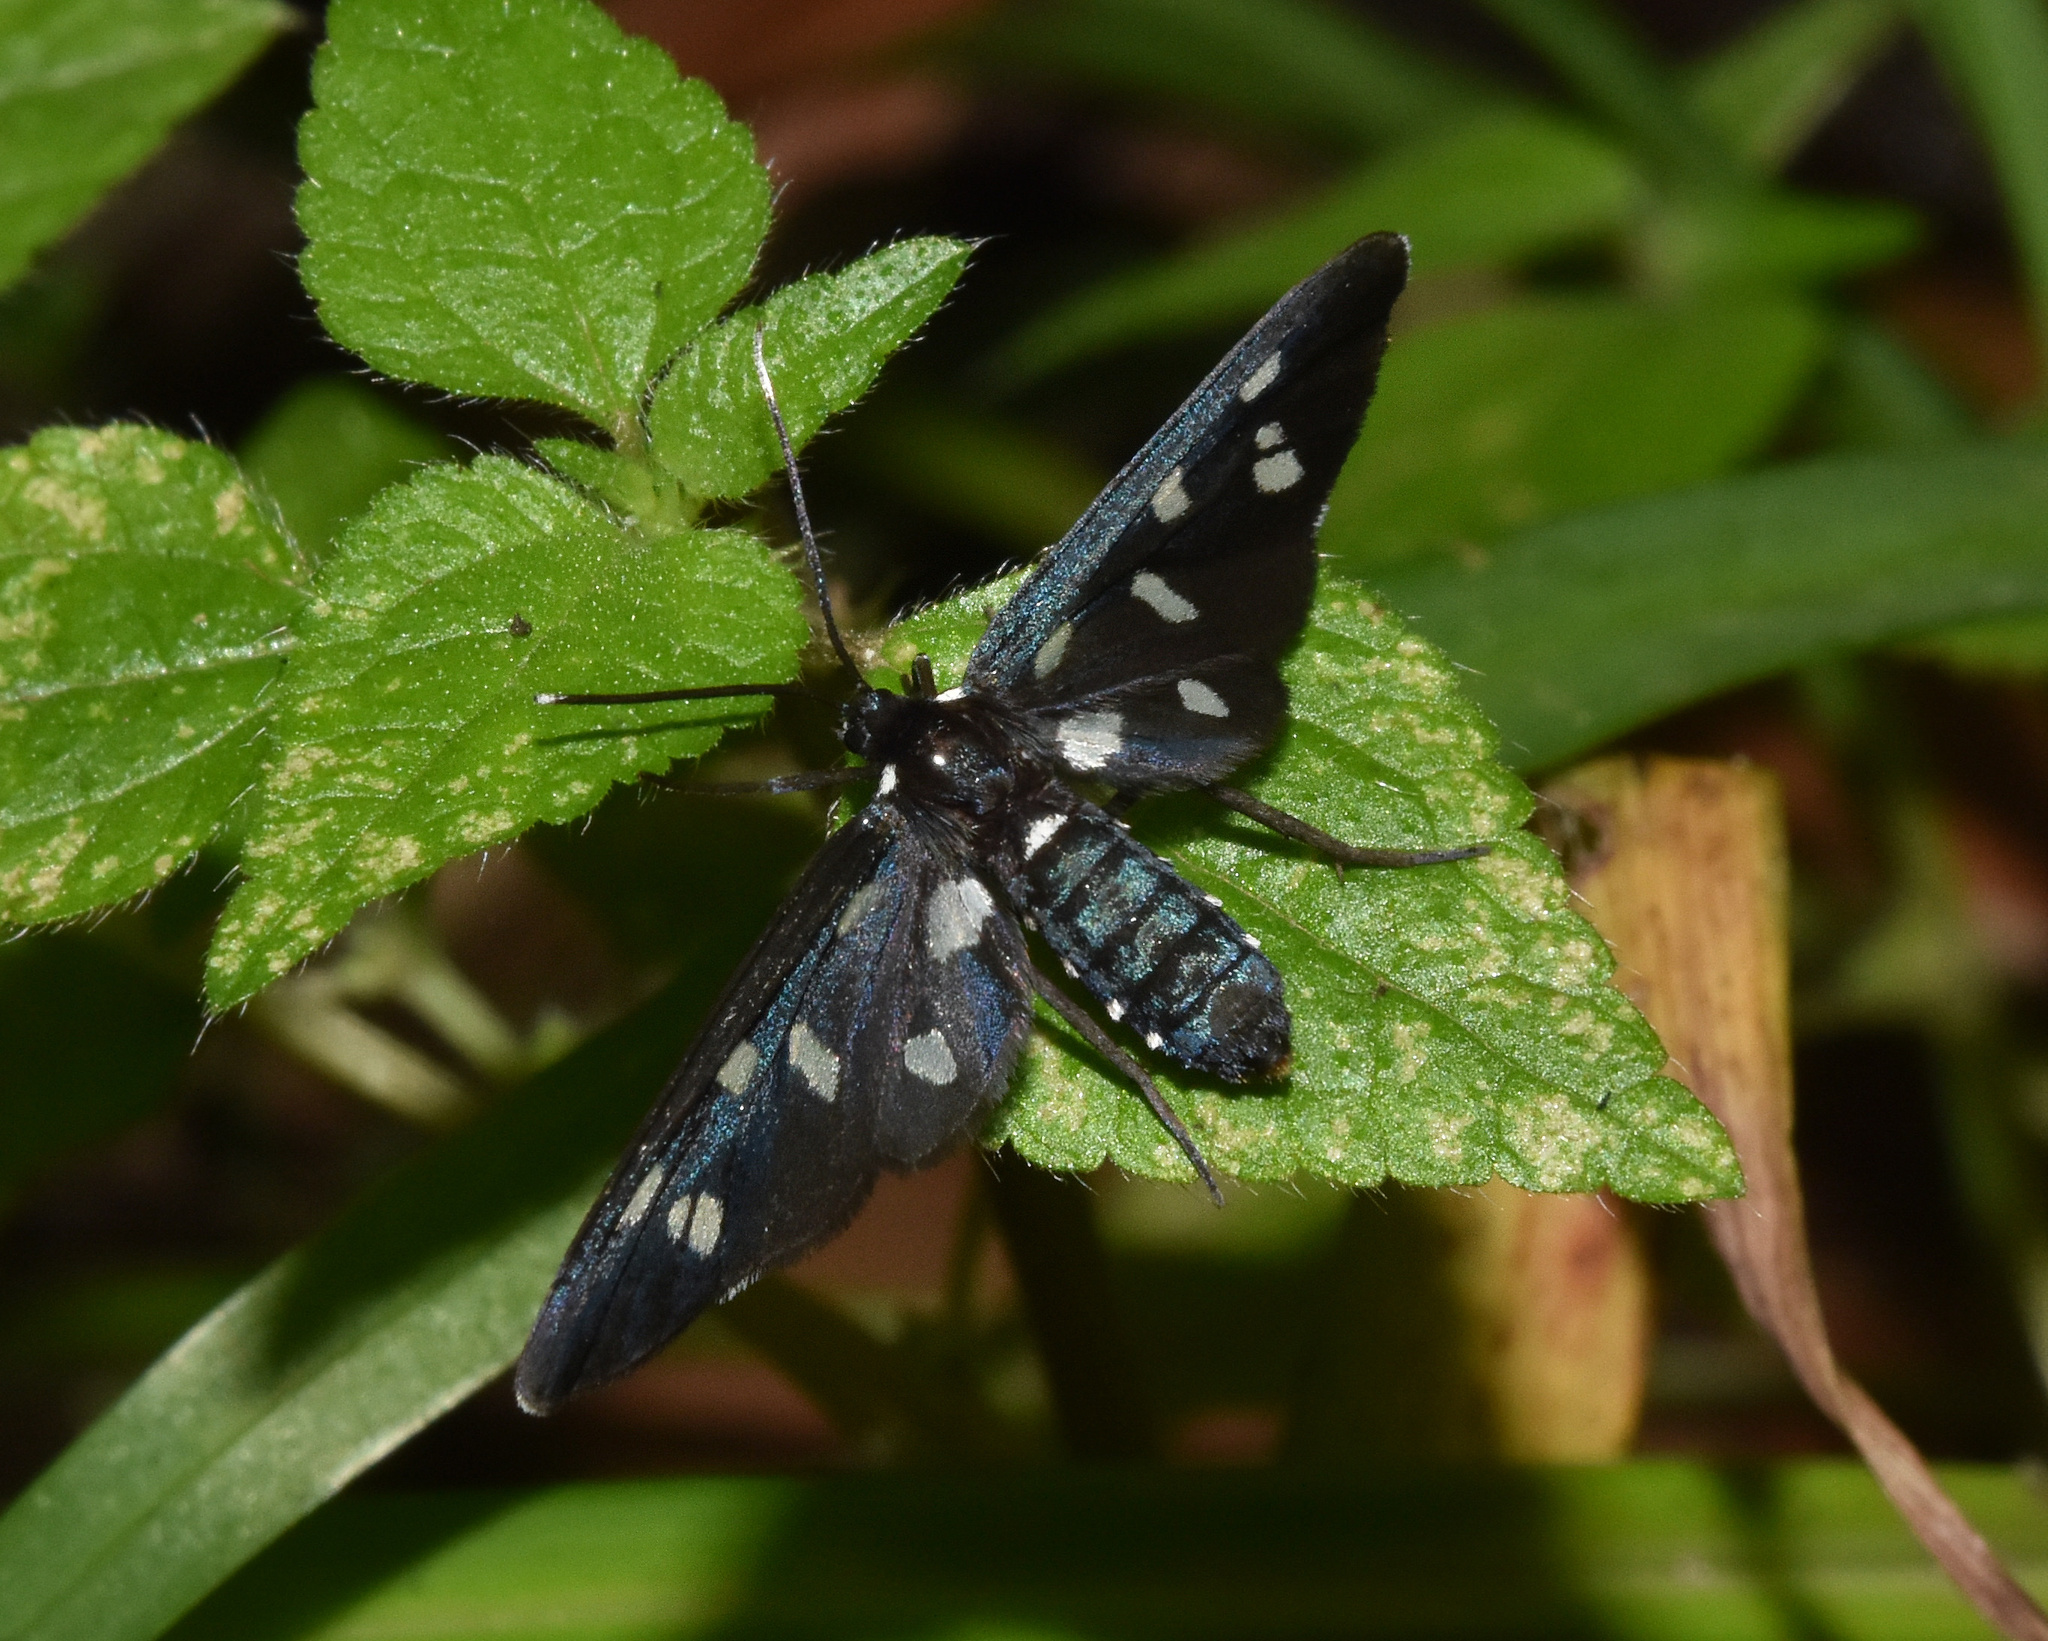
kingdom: Animalia
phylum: Arthropoda
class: Insecta
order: Lepidoptera
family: Erebidae
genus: Ceryx
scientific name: Ceryx longipes
